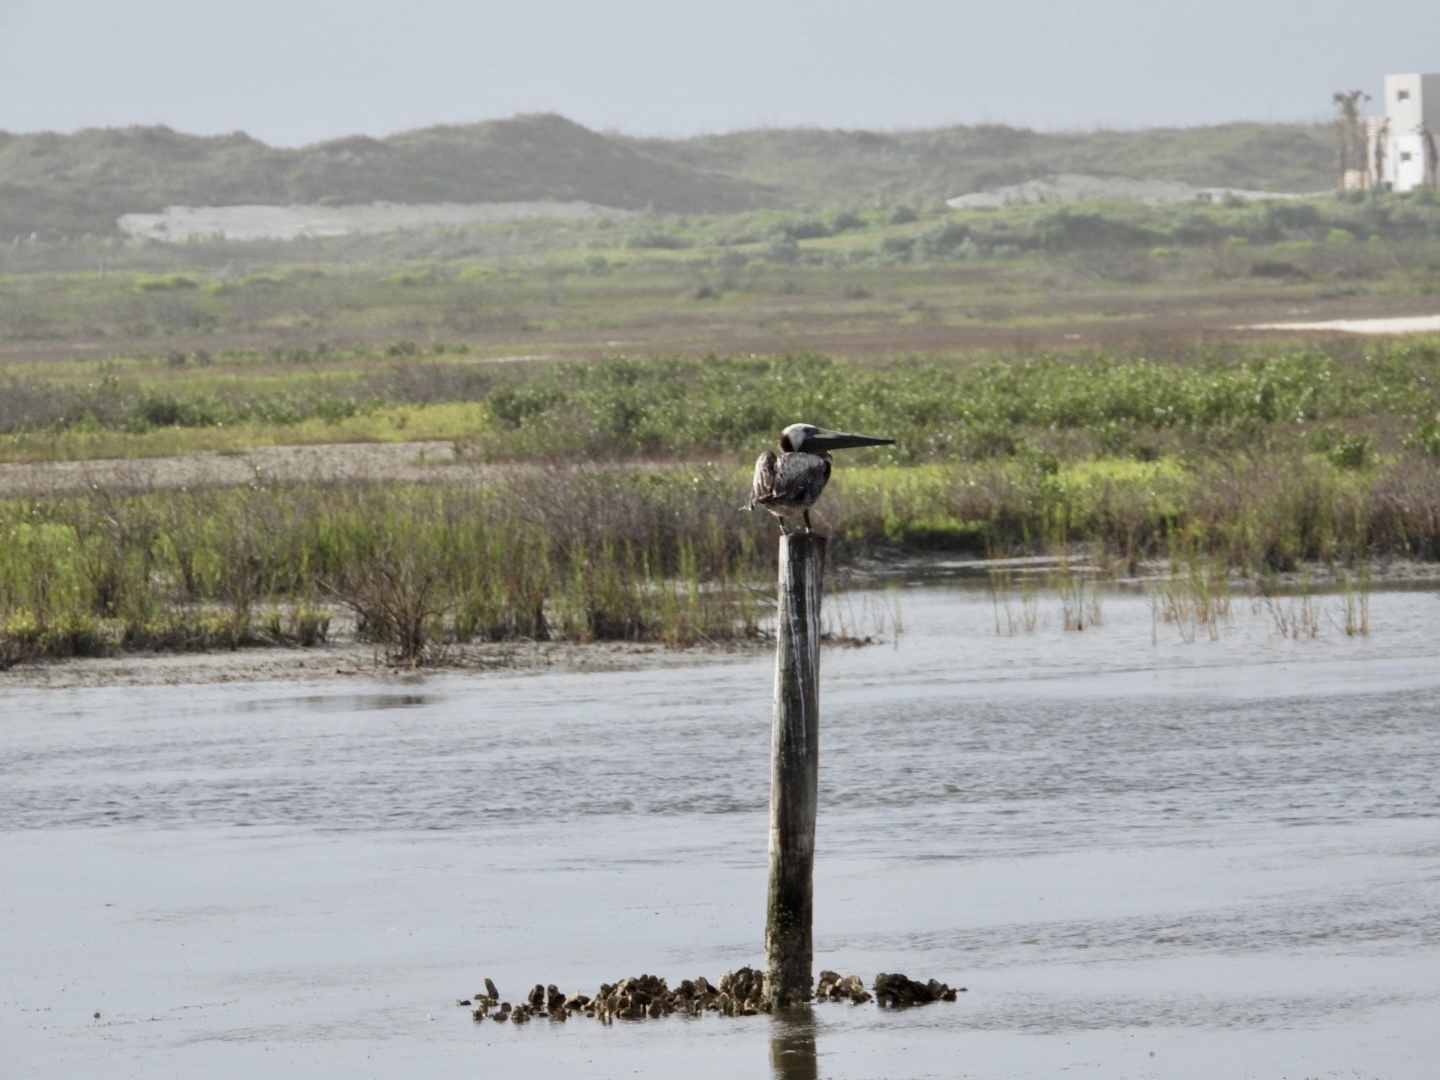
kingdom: Animalia
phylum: Chordata
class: Aves
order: Pelecaniformes
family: Pelecanidae
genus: Pelecanus
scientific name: Pelecanus occidentalis
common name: Brown pelican
